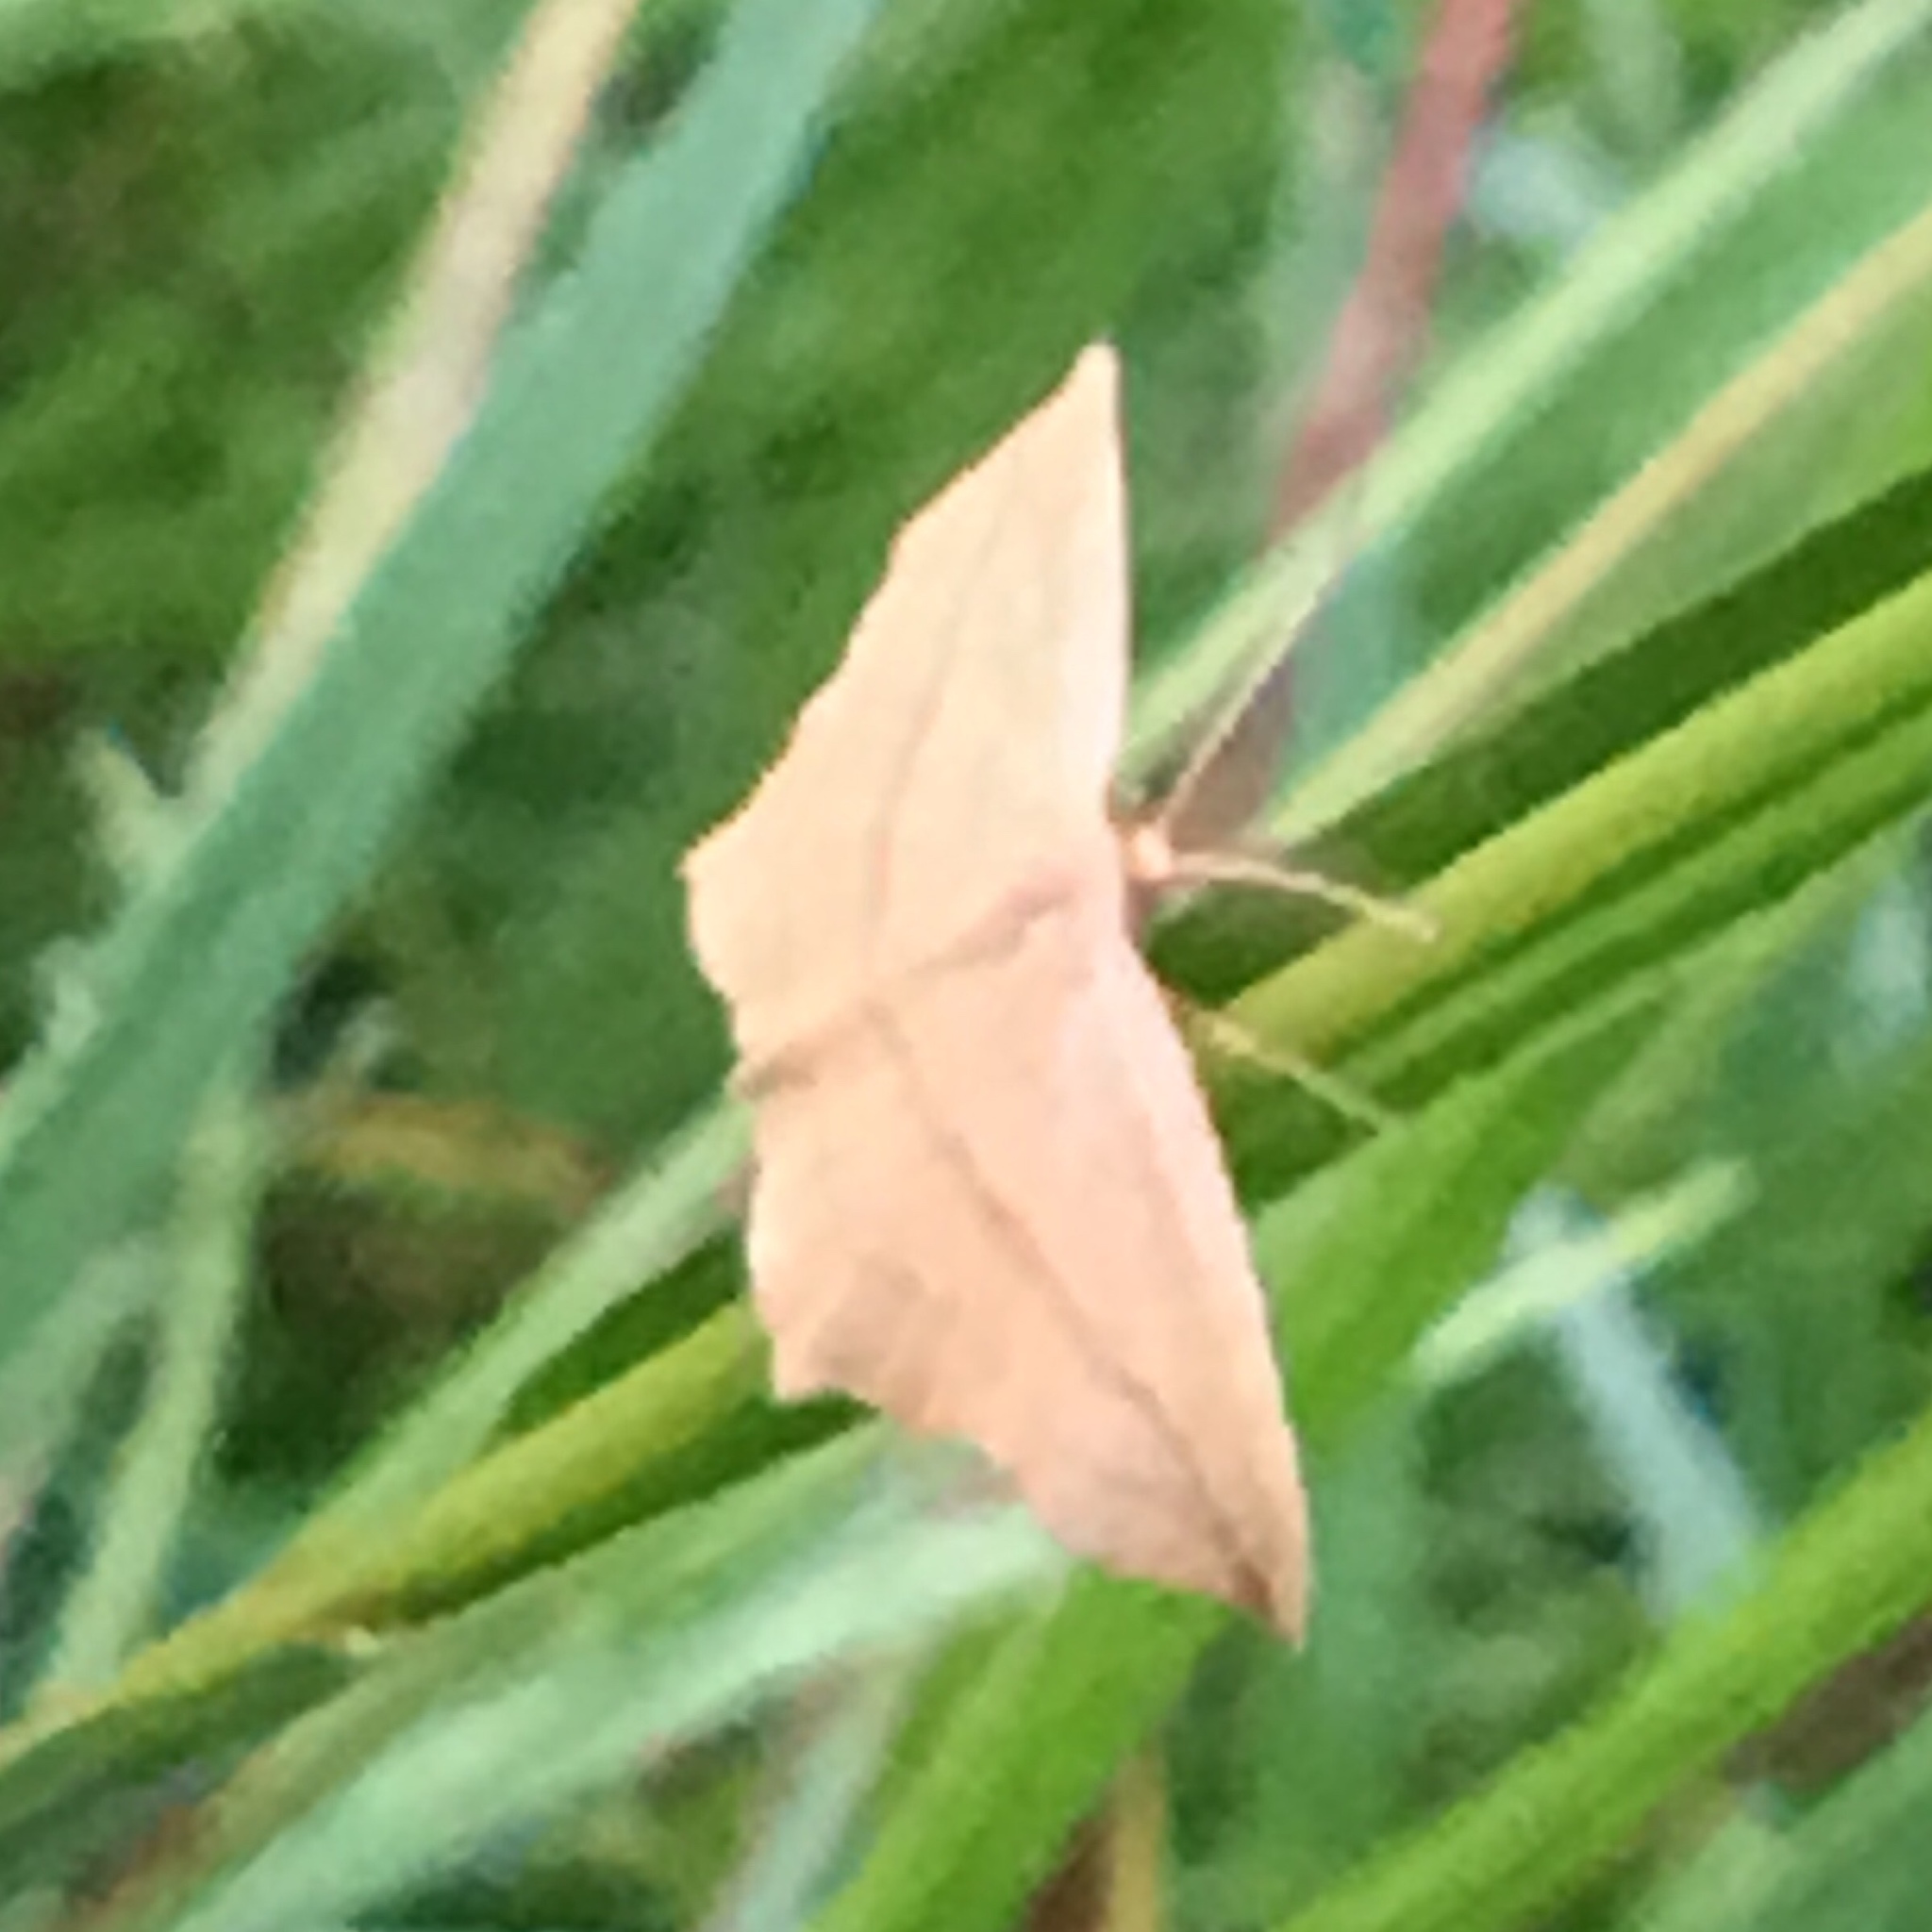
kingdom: Animalia
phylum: Arthropoda
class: Insecta
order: Lepidoptera
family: Geometridae
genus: Timandra
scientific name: Timandra amaturaria
